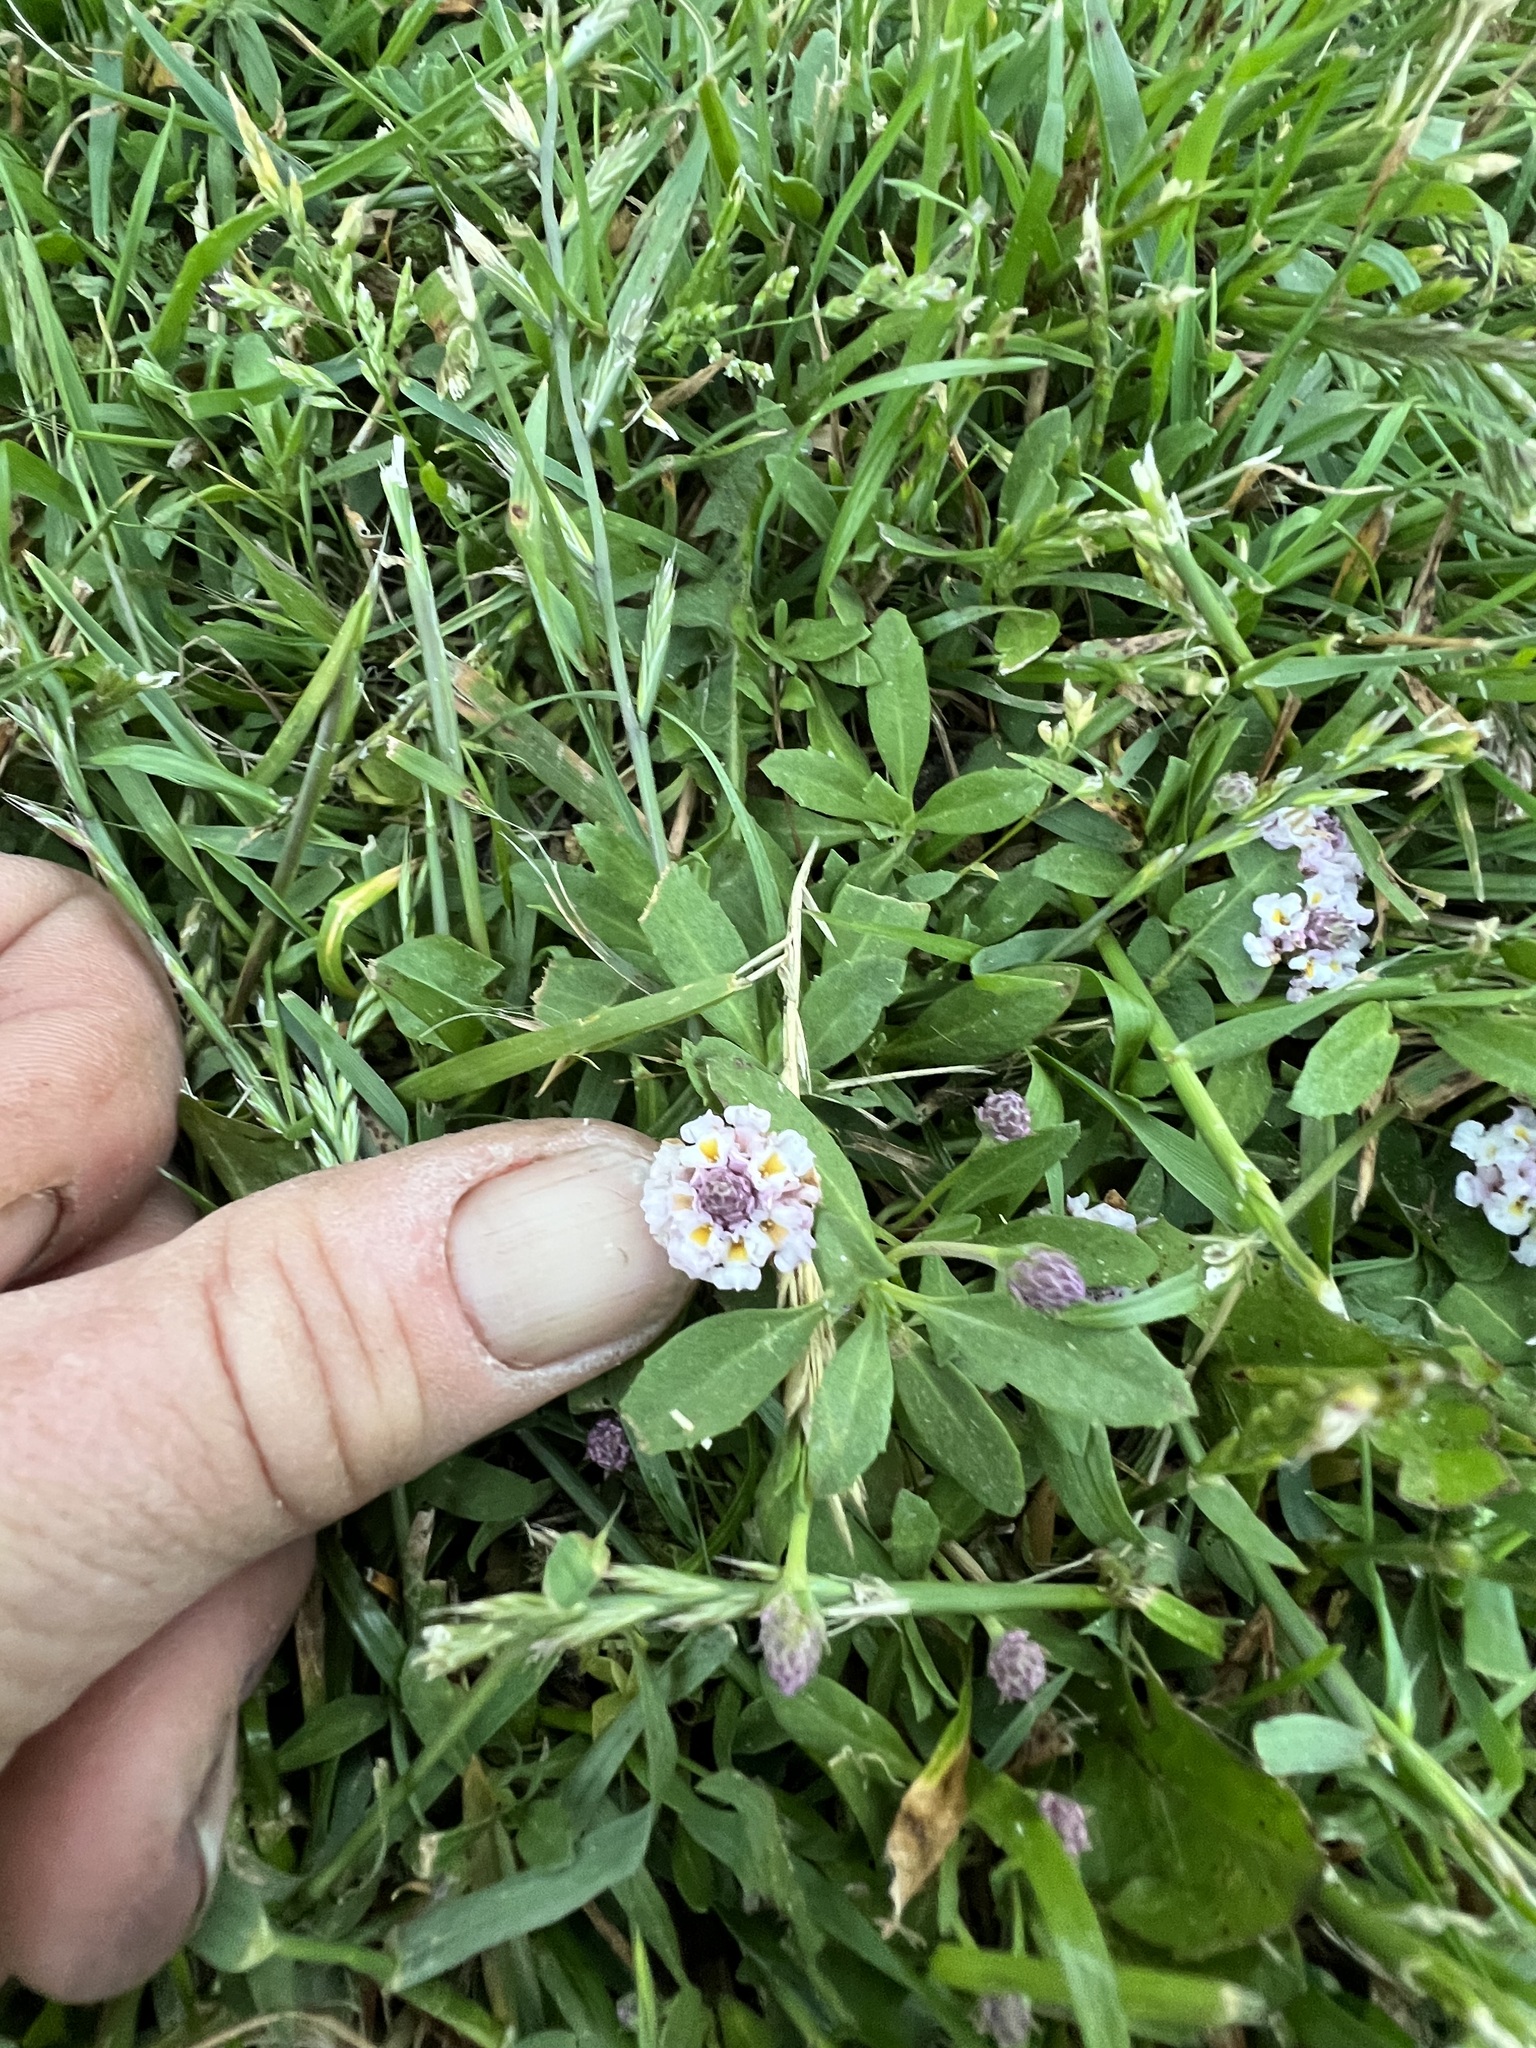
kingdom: Plantae
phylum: Tracheophyta
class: Magnoliopsida
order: Lamiales
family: Verbenaceae
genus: Phyla
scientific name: Phyla nodiflora
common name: Frogfruit
